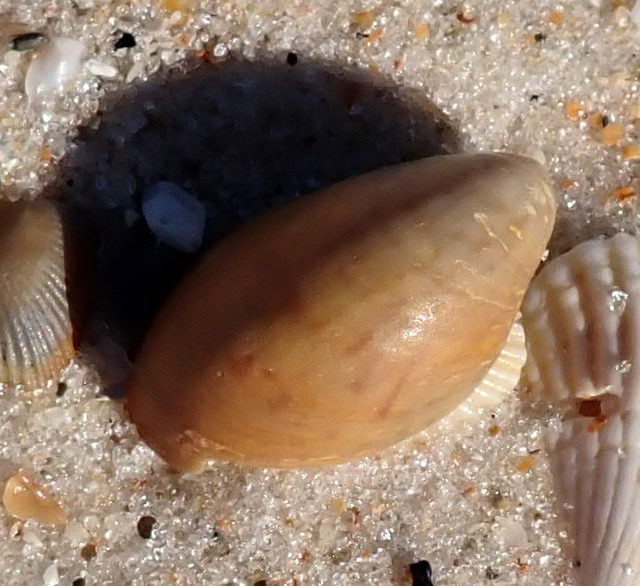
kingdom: Animalia
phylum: Mollusca
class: Gastropoda
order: Littorinimorpha
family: Calyptraeidae
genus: Crepidula
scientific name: Crepidula fornicata
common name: Slipper limpet
